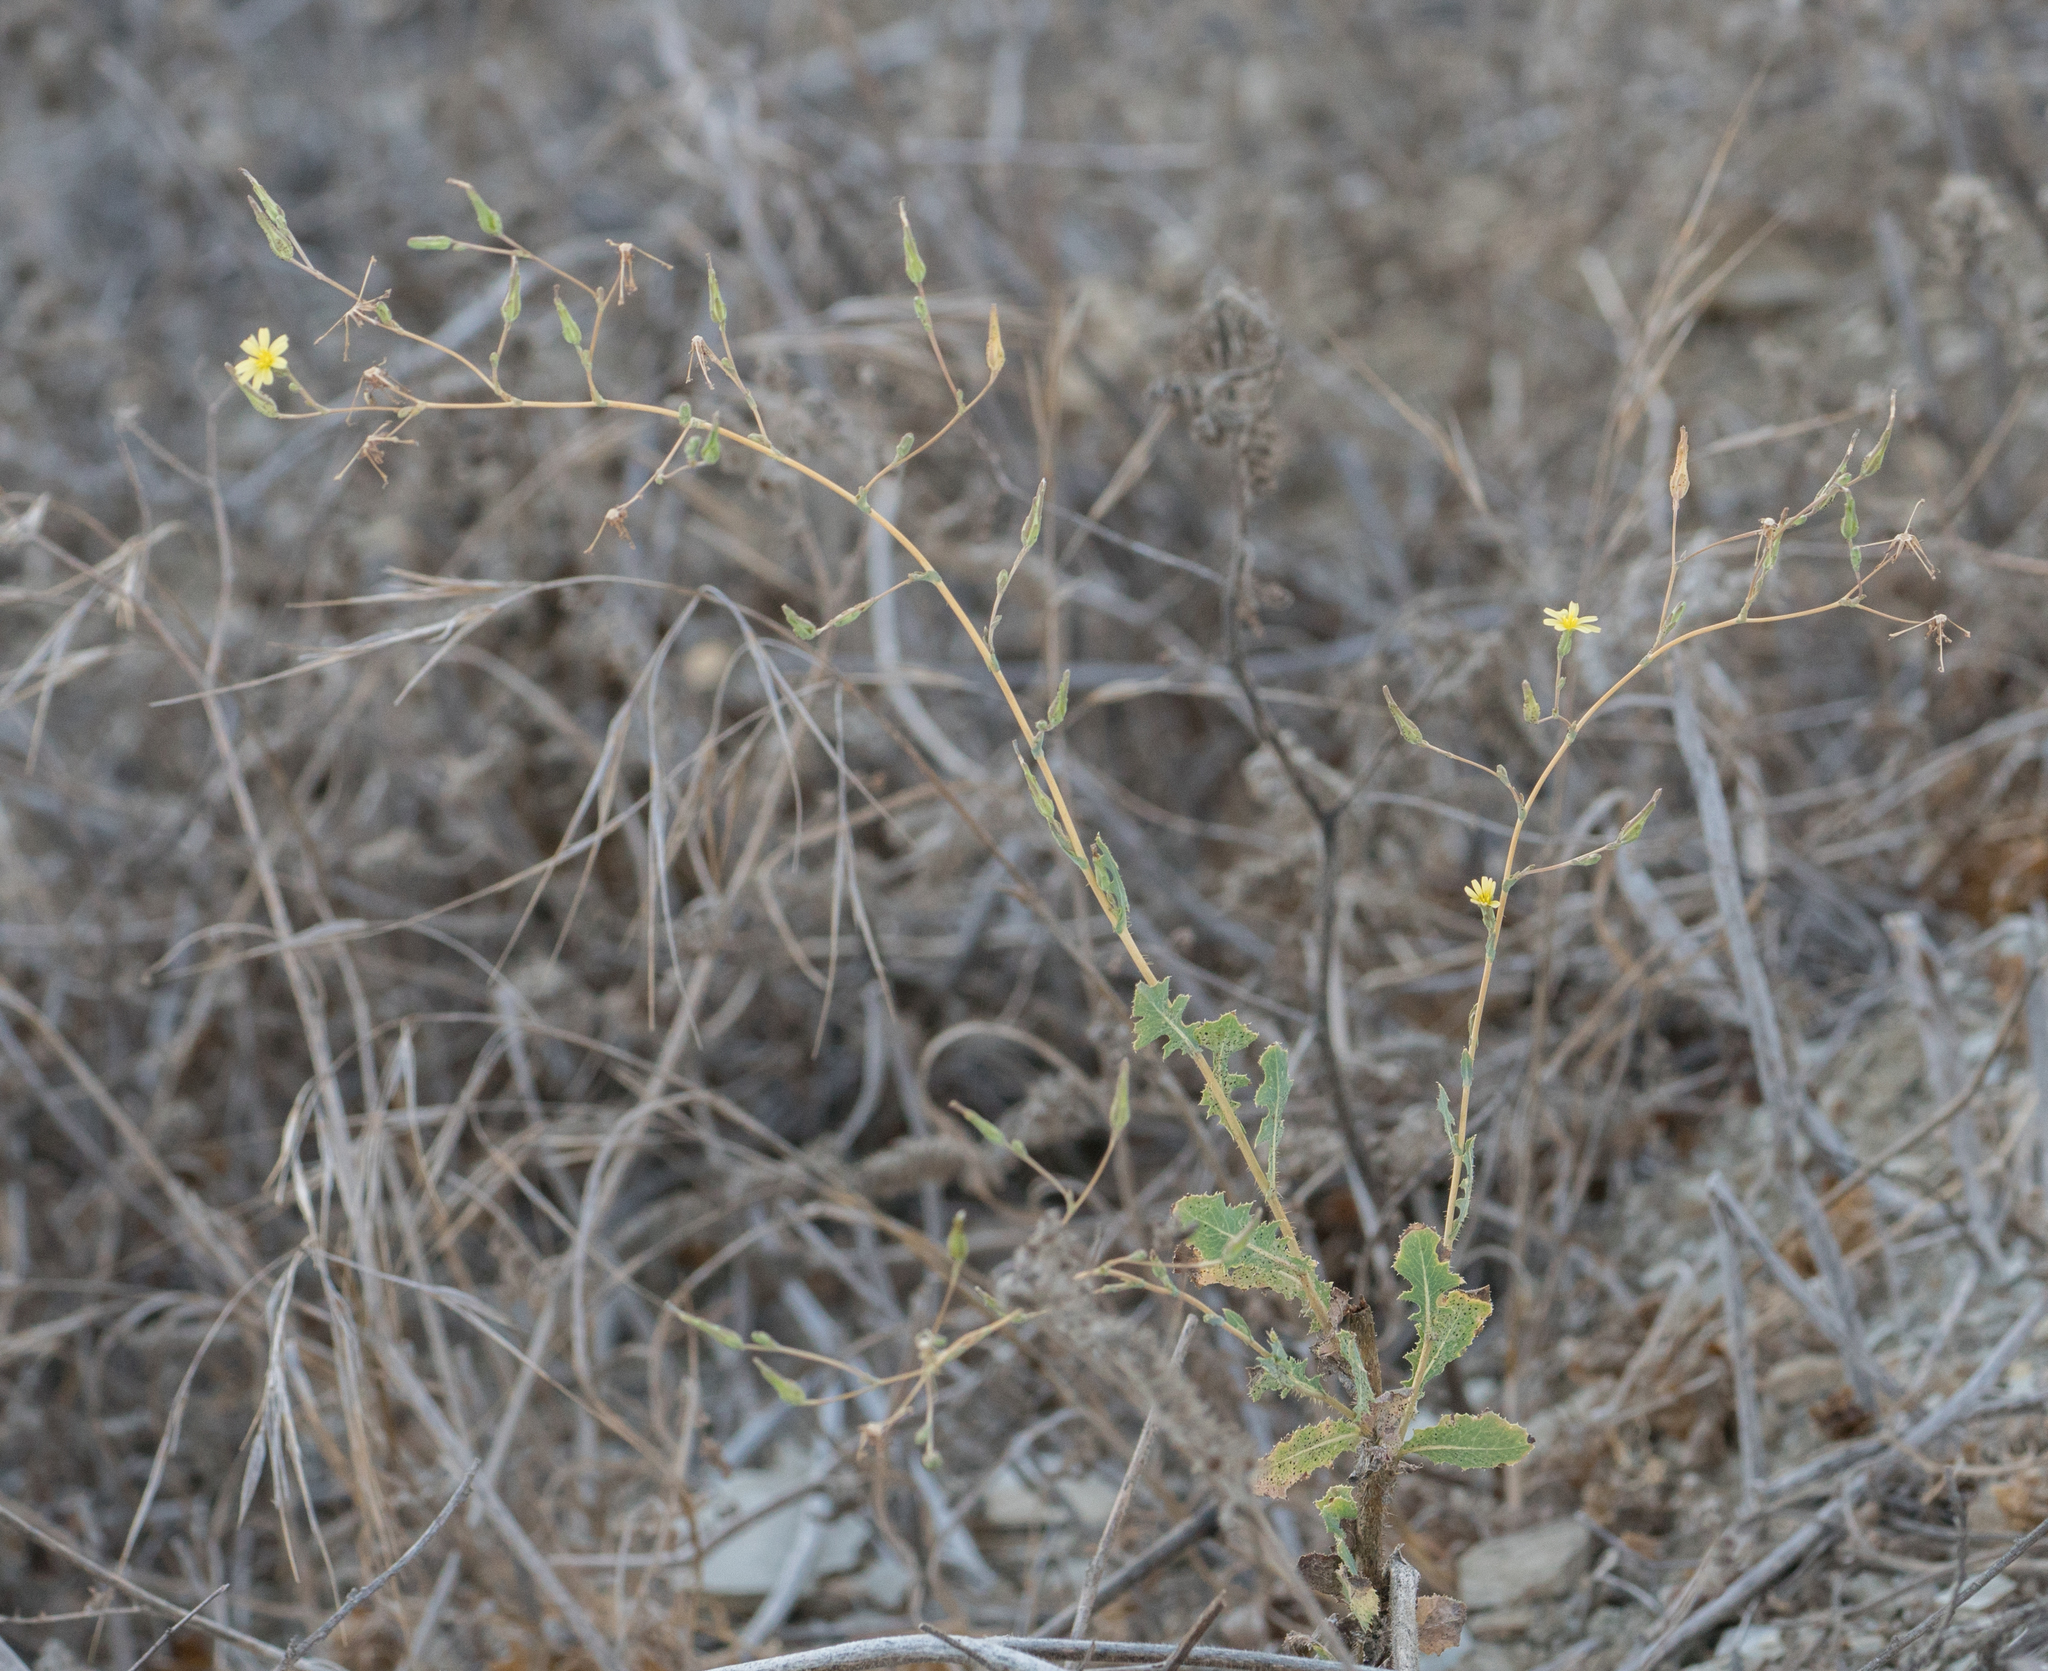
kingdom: Plantae
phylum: Tracheophyta
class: Magnoliopsida
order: Asterales
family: Asteraceae
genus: Lactuca
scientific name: Lactuca serriola
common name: Prickly lettuce
